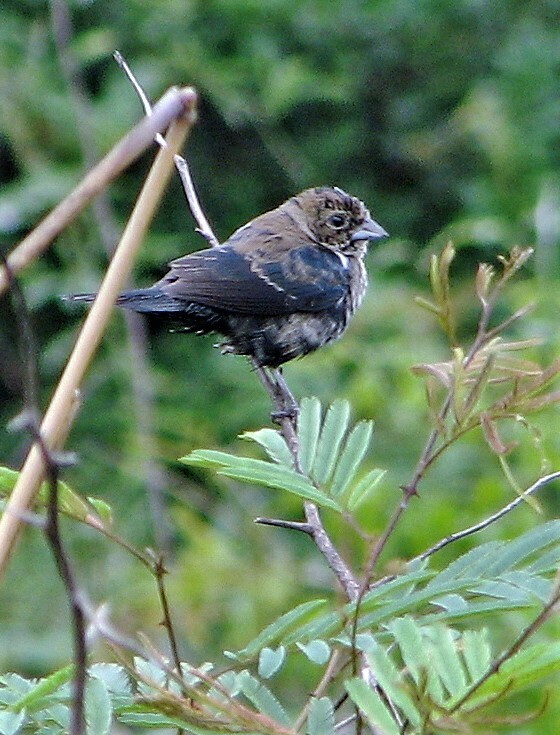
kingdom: Animalia
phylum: Chordata
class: Aves
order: Passeriformes
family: Thraupidae
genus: Volatinia
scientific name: Volatinia jacarina
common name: Blue-black grassquit
